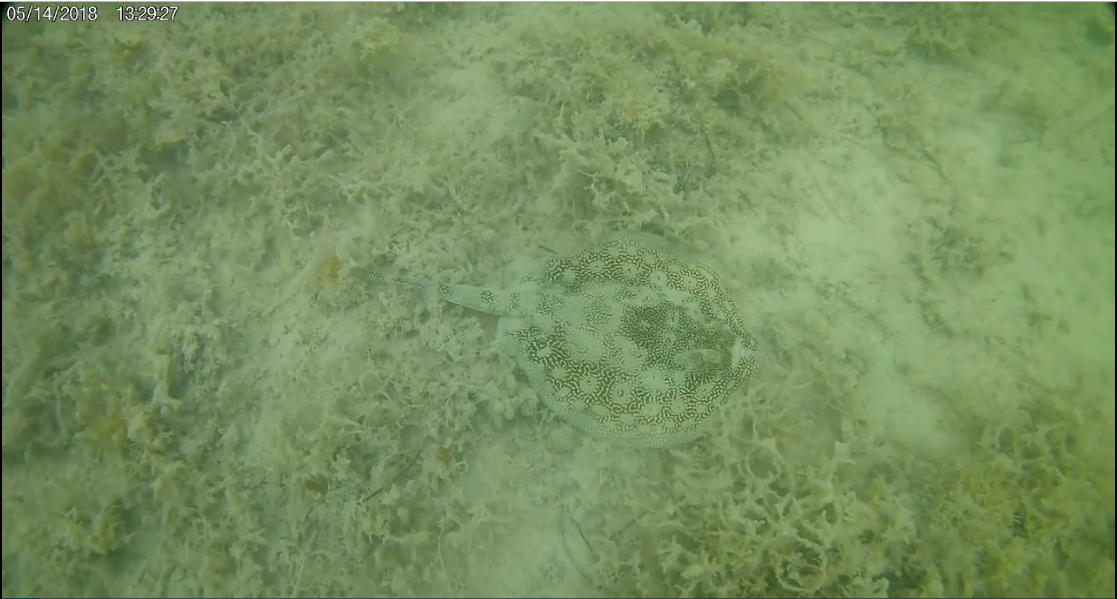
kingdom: Animalia
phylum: Chordata
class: Elasmobranchii
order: Myliobatiformes
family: Urotrygonidae
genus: Urobatis
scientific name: Urobatis jamaicensis
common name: Yellow stingray
